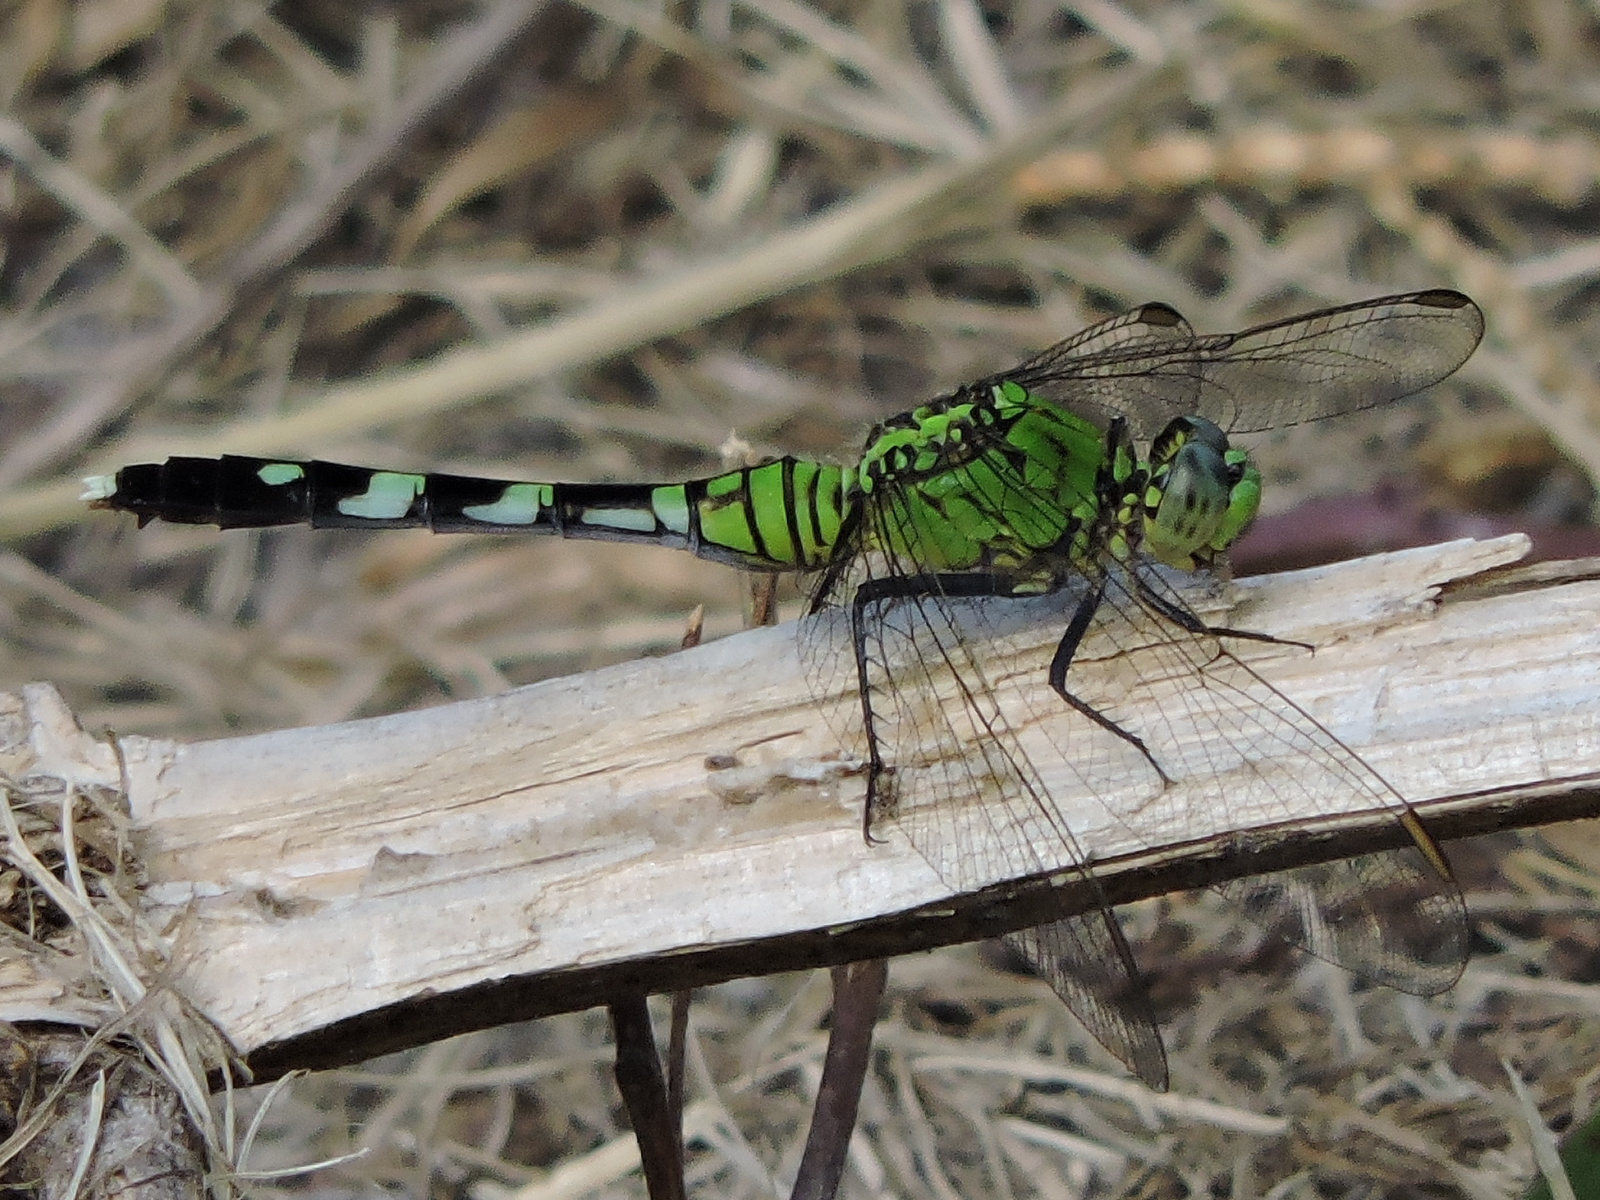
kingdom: Animalia
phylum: Arthropoda
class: Insecta
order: Odonata
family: Libellulidae
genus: Erythemis
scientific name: Erythemis simplicicollis
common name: Eastern pondhawk
